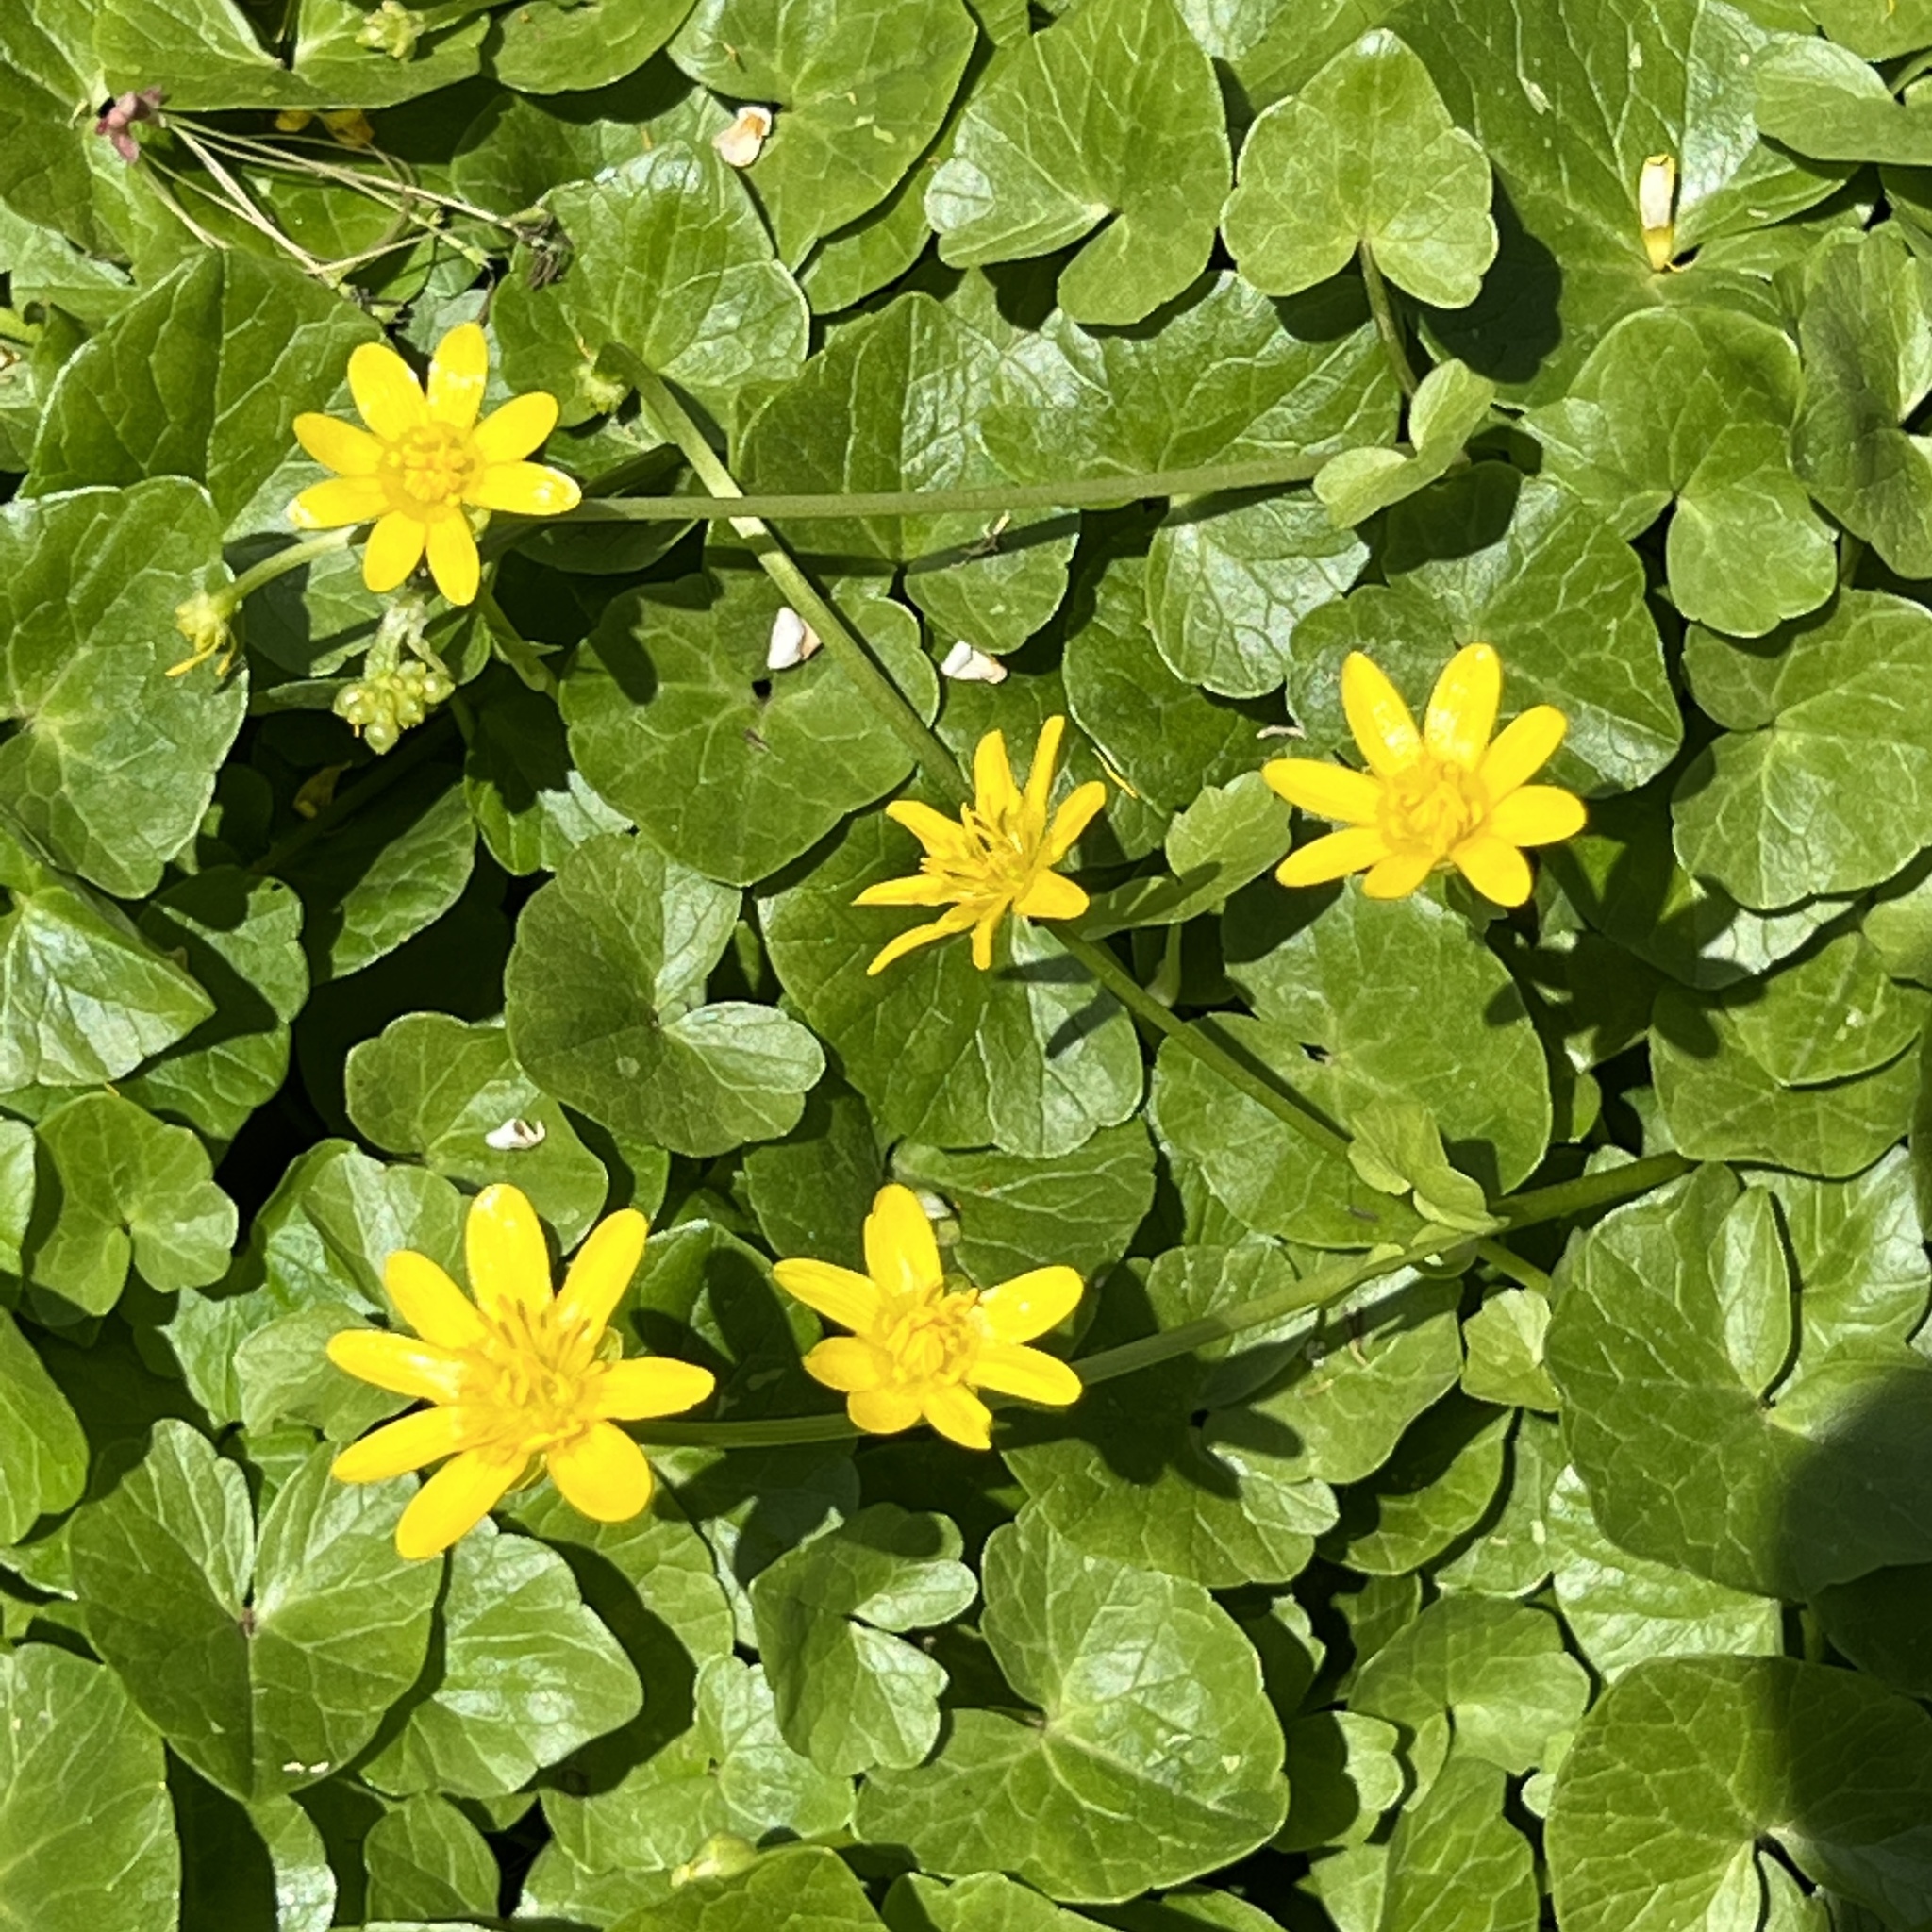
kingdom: Plantae
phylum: Tracheophyta
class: Magnoliopsida
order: Ranunculales
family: Ranunculaceae
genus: Ficaria
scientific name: Ficaria verna
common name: Lesser celandine
